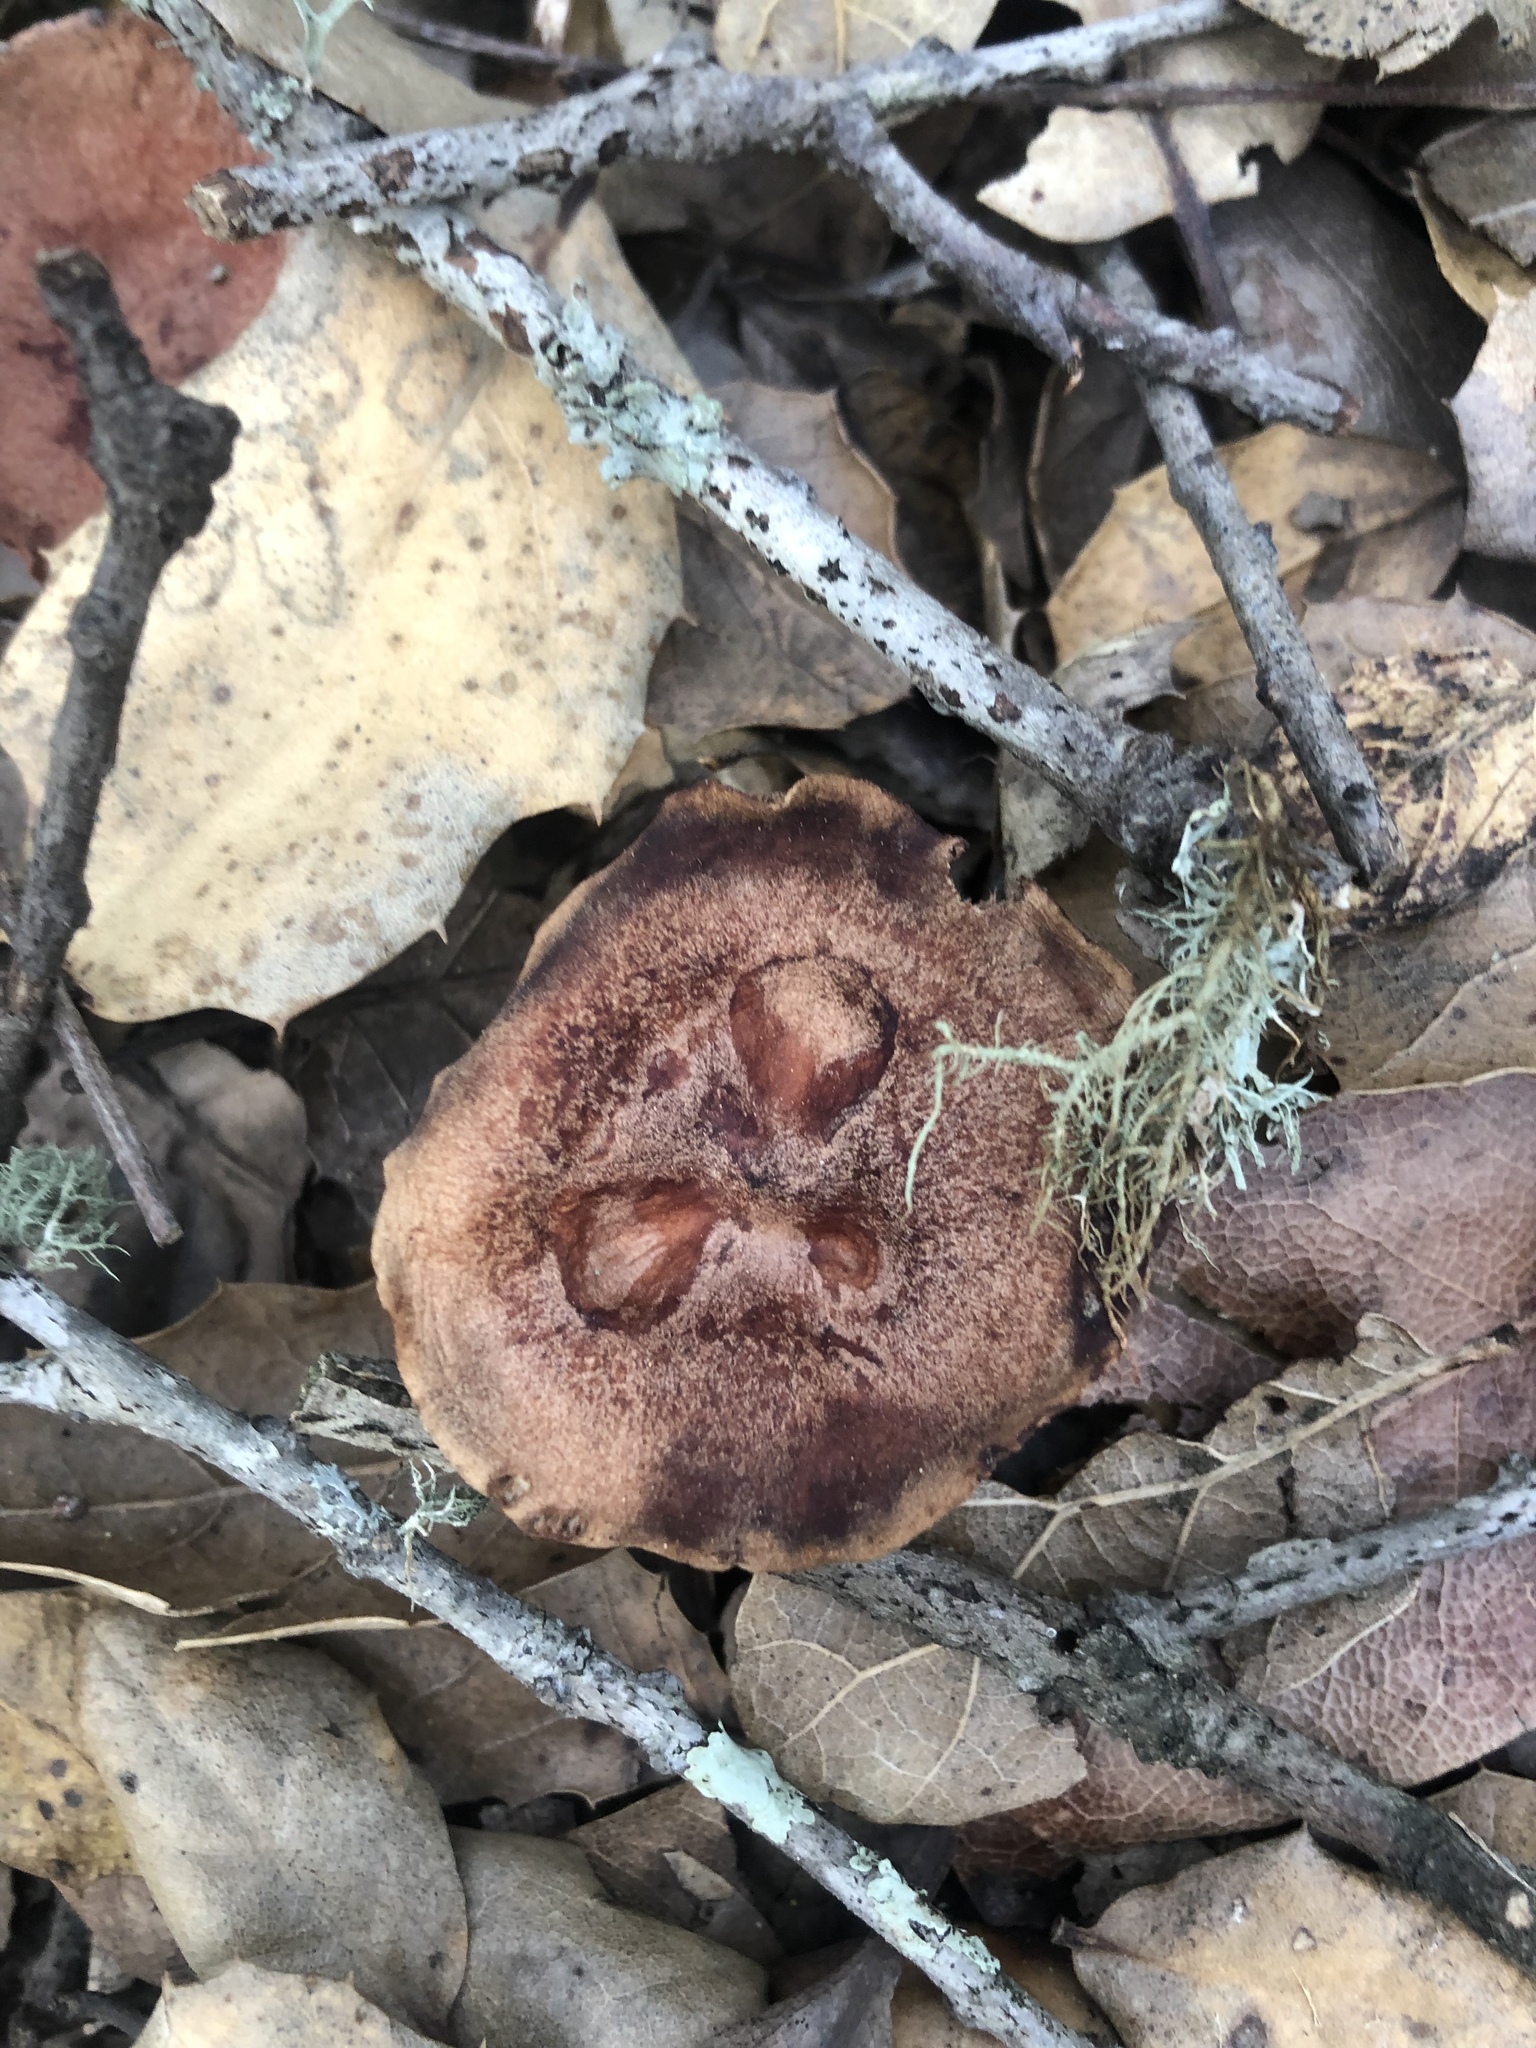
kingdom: Fungi
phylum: Basidiomycota
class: Agaricomycetes
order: Russulales
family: Russulaceae
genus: Lactarius
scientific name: Lactarius xanthogalactus
